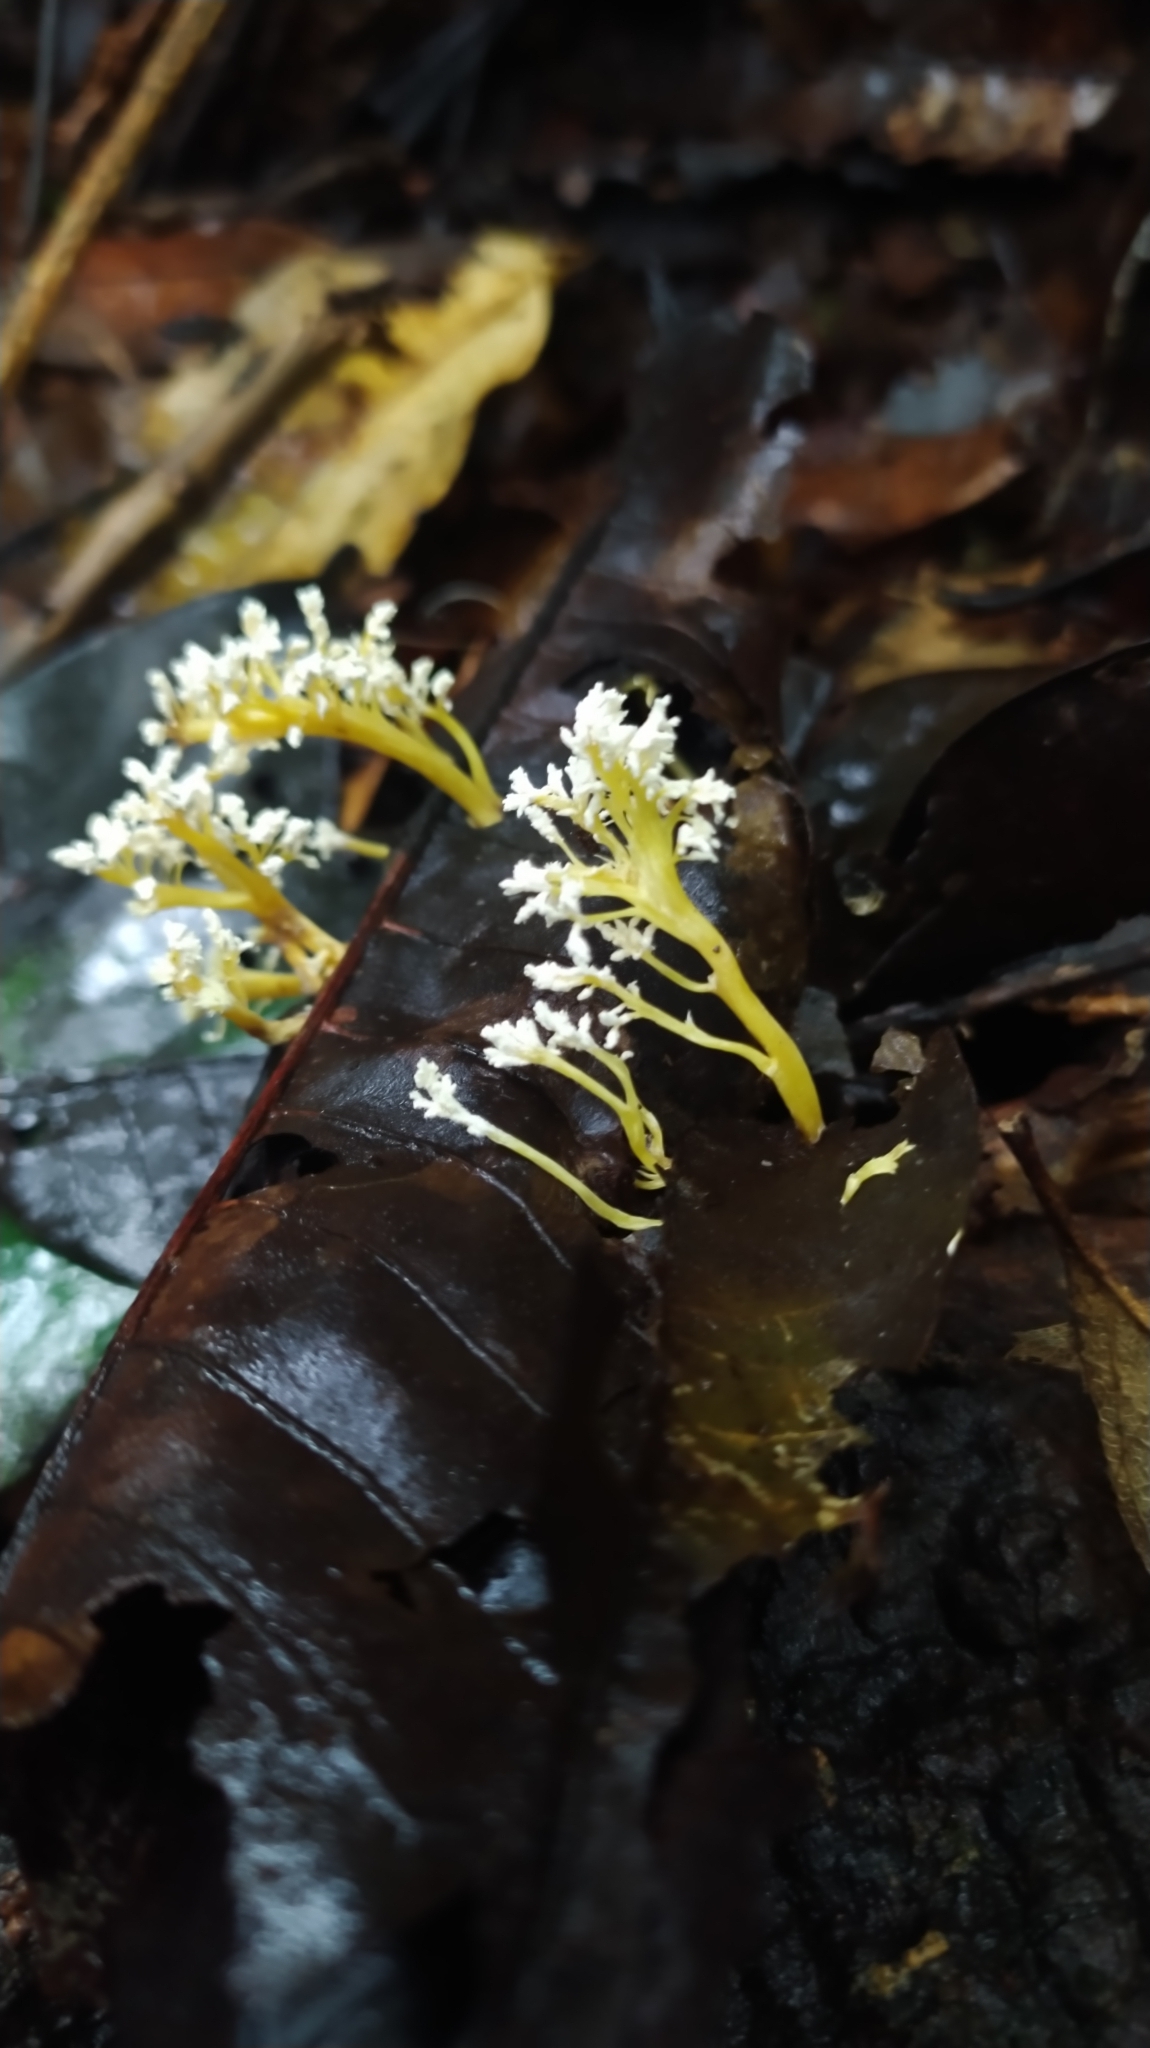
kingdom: Fungi
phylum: Ascomycota
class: Sordariomycetes
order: Hypocreales
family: Cordycipitaceae
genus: Cordyceps
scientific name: Cordyceps tenuipes
